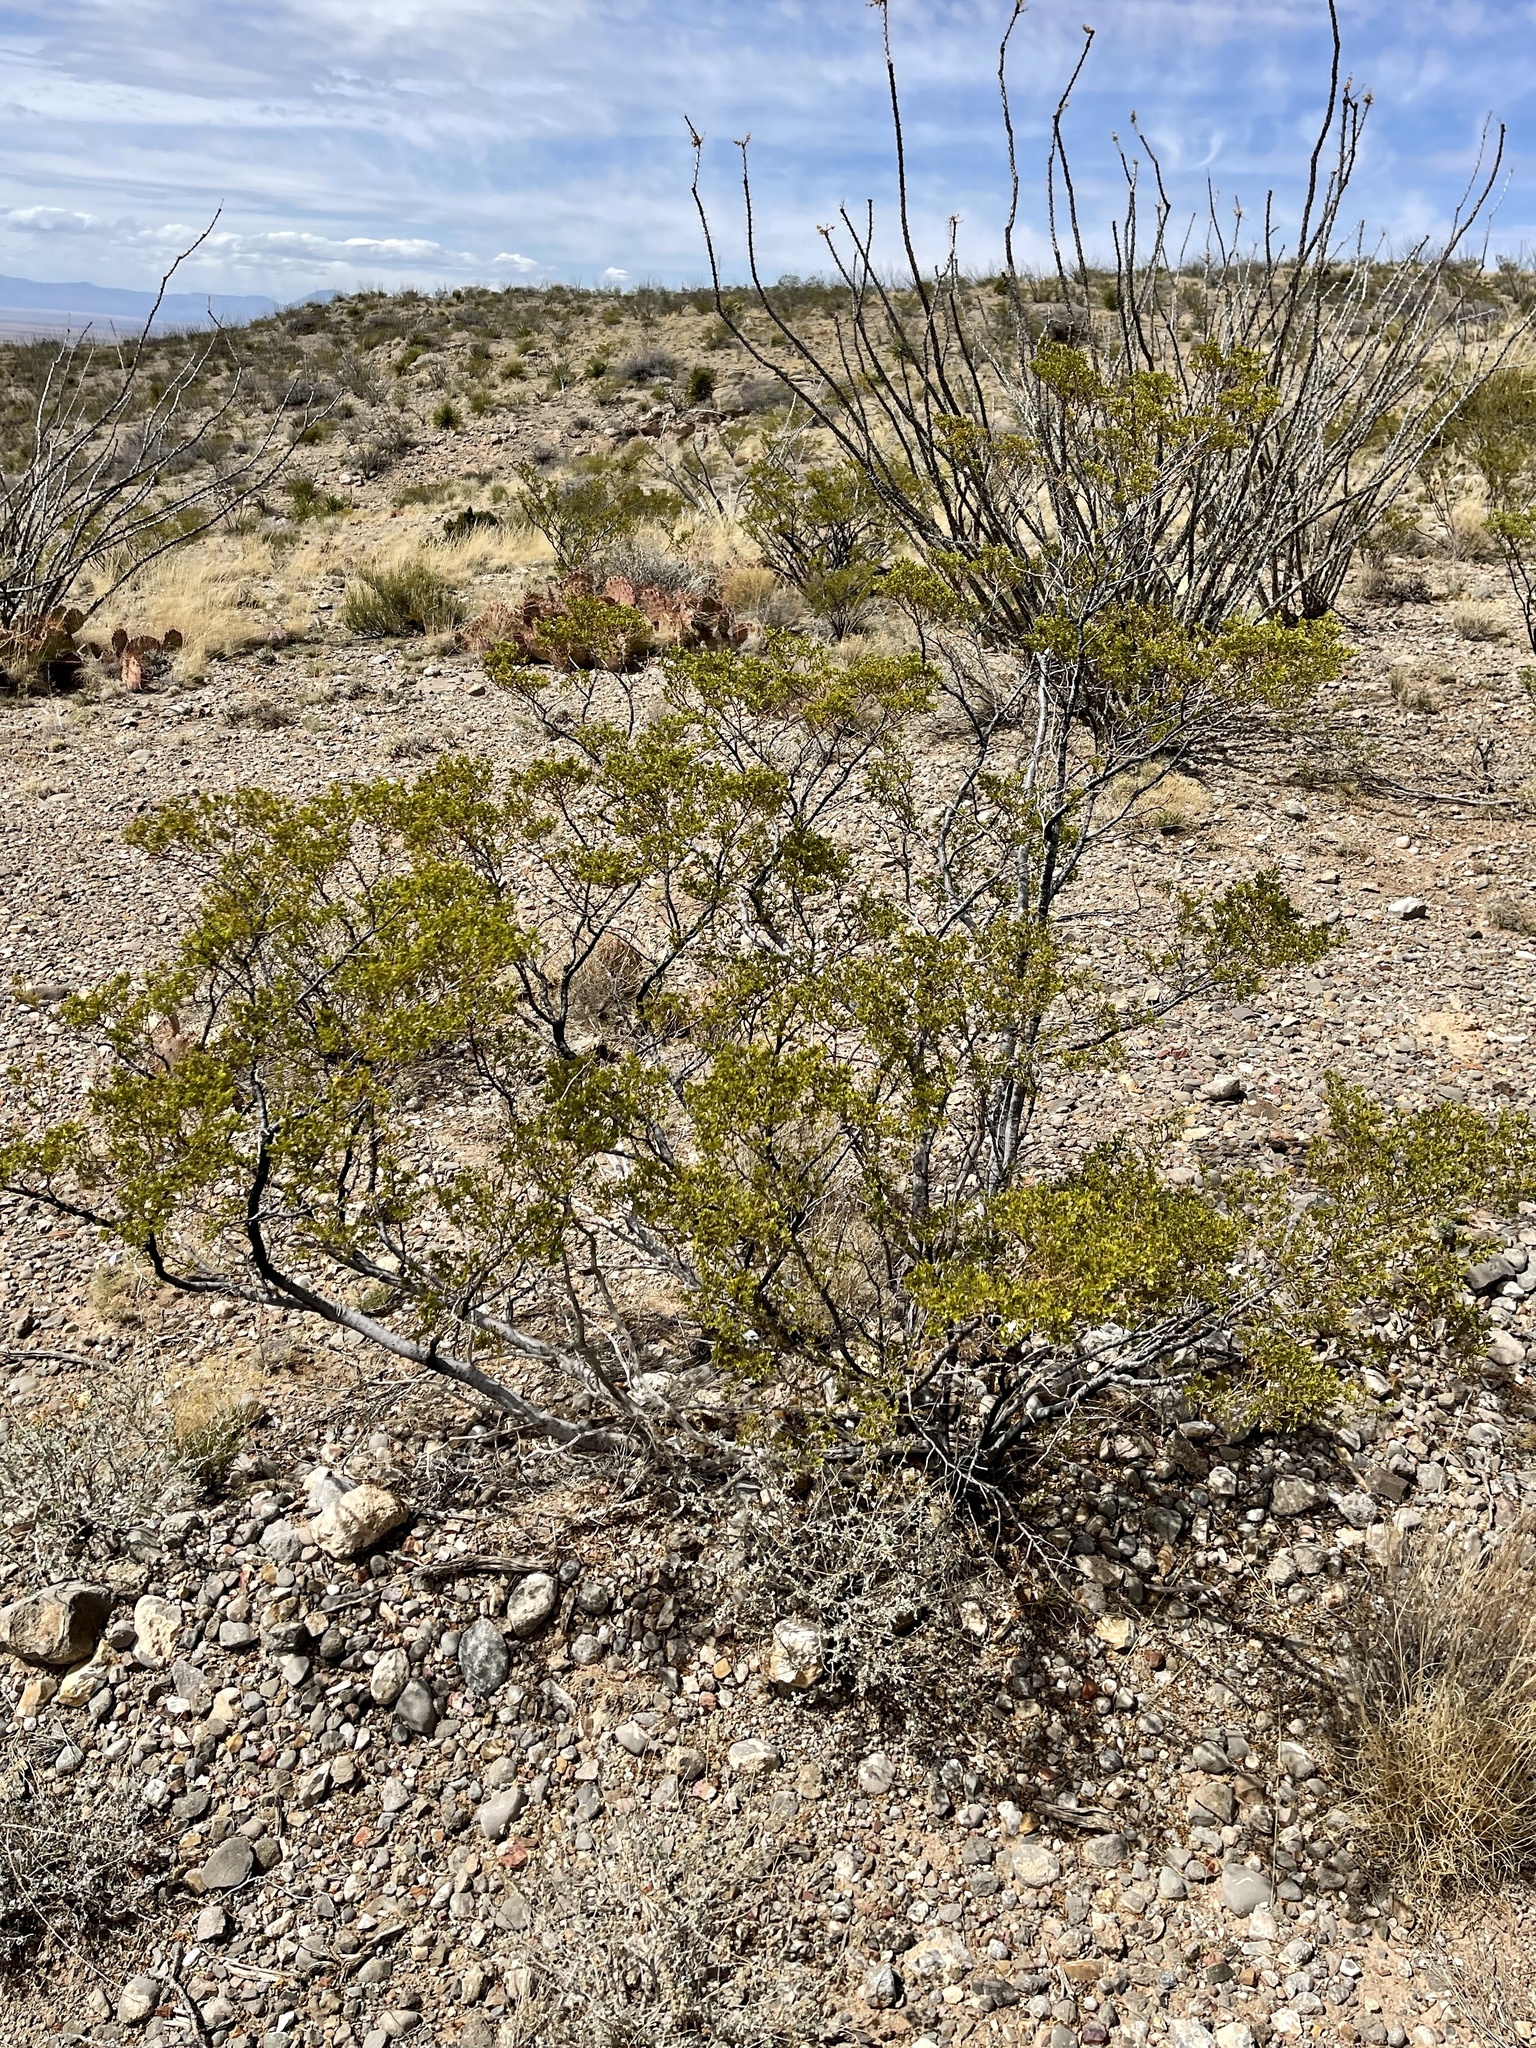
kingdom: Plantae
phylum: Tracheophyta
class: Magnoliopsida
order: Zygophyllales
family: Zygophyllaceae
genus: Larrea
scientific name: Larrea tridentata
